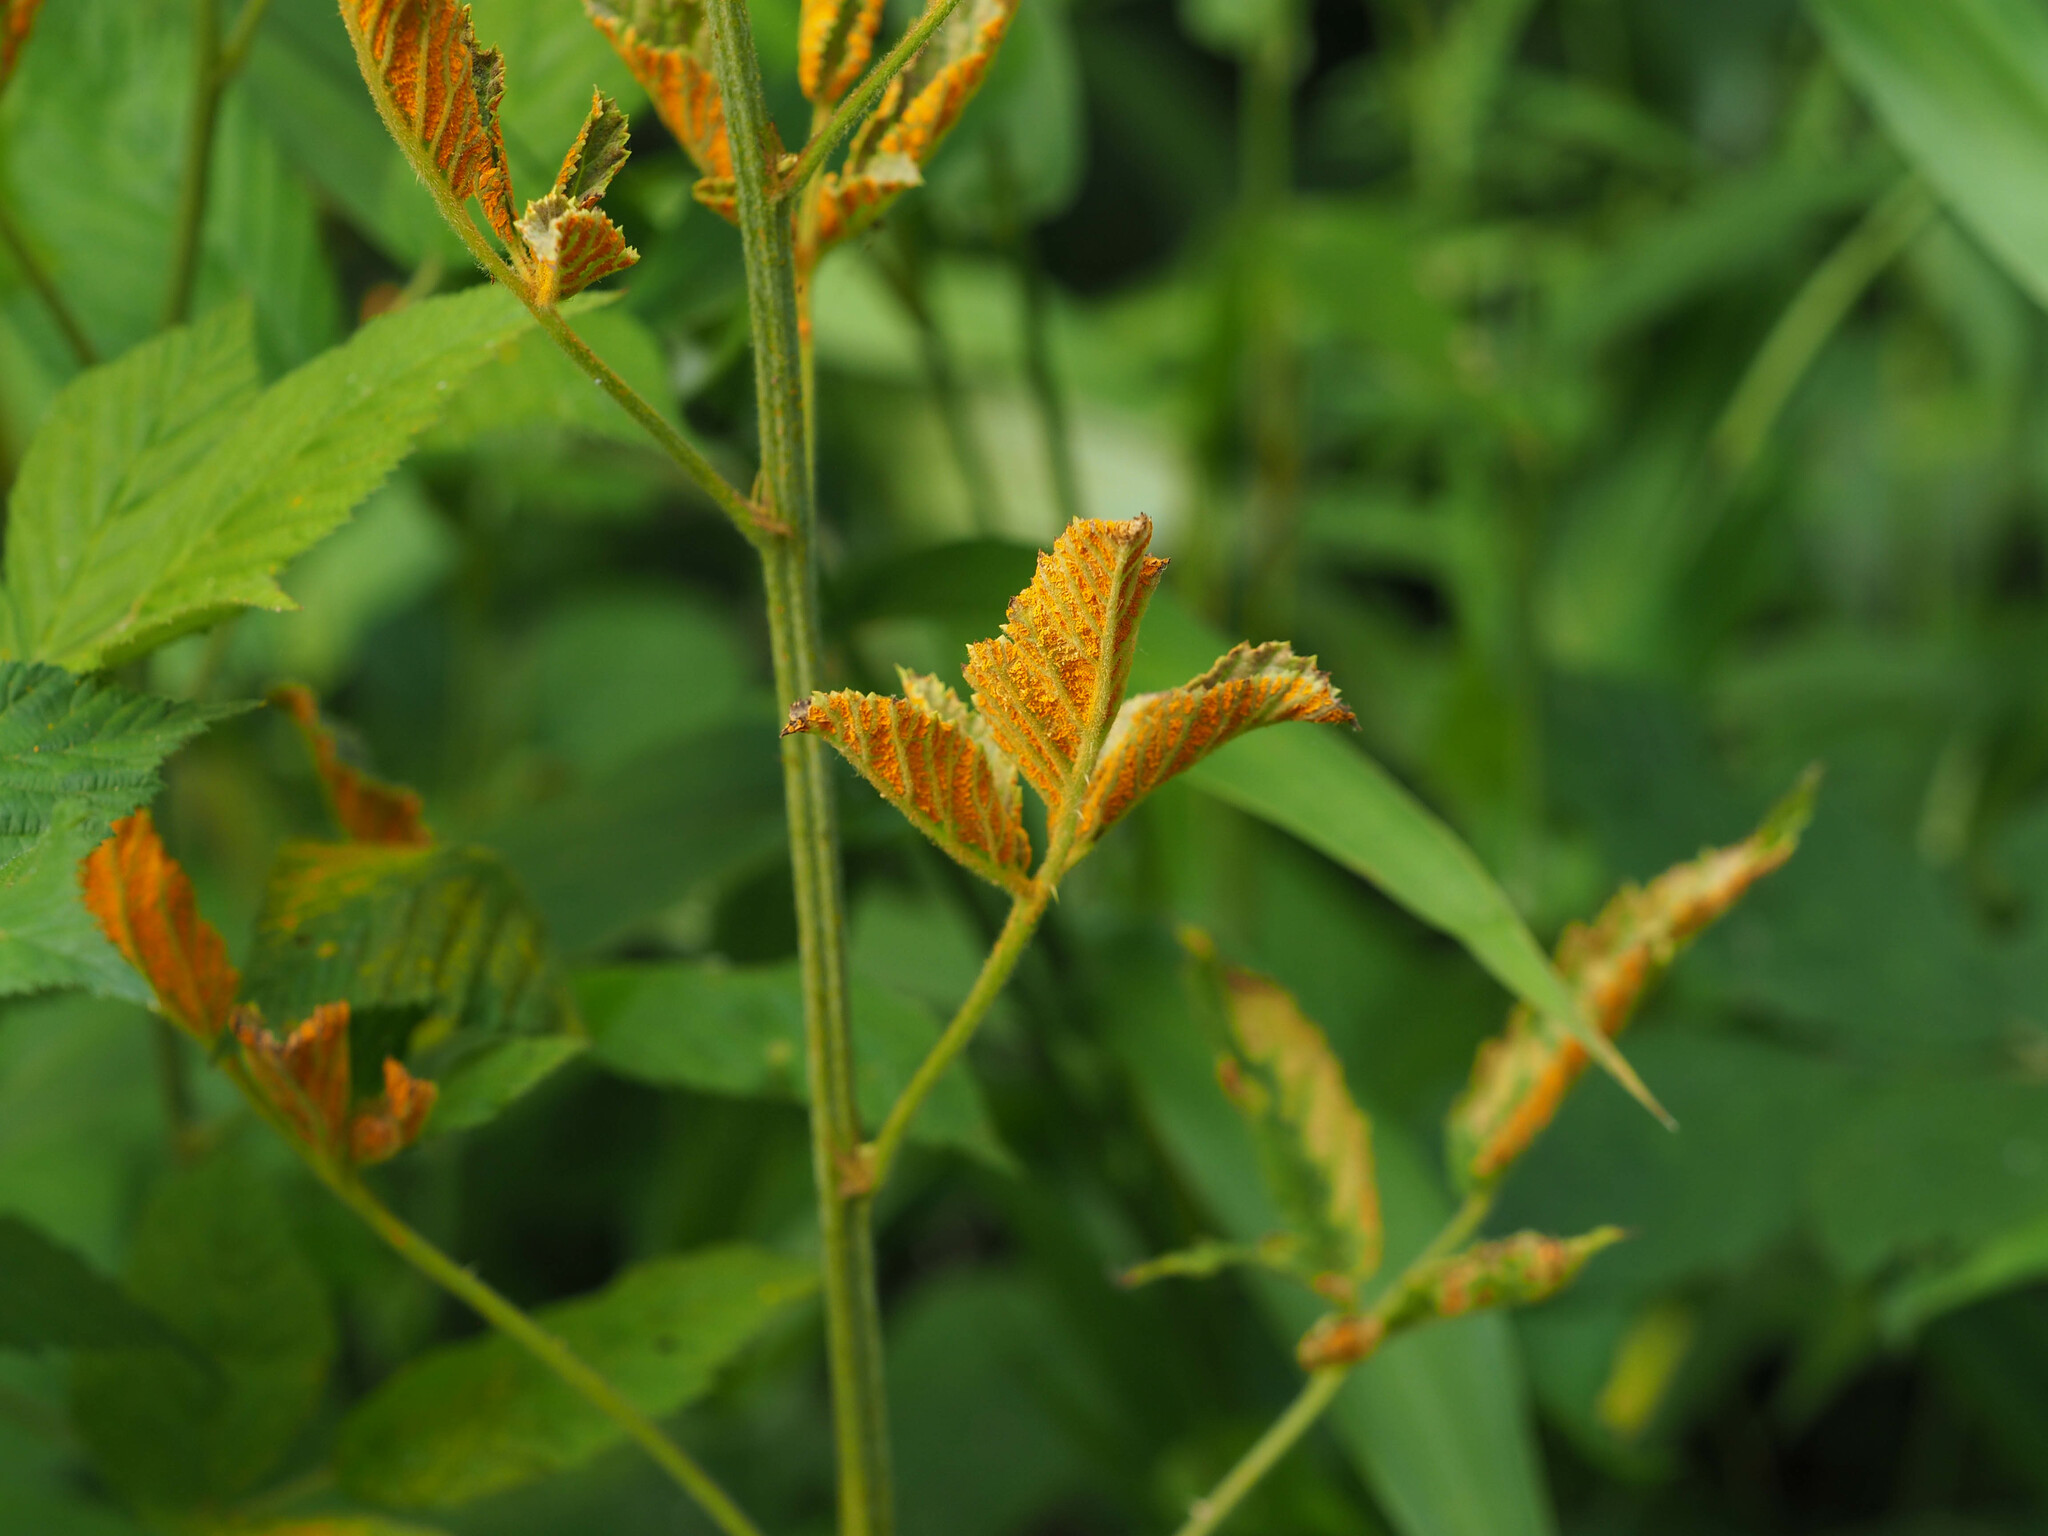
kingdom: Fungi
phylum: Basidiomycota
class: Pucciniomycetes
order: Pucciniales
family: Phragmidiaceae
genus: Arthuriomyces
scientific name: Arthuriomyces peckianus
